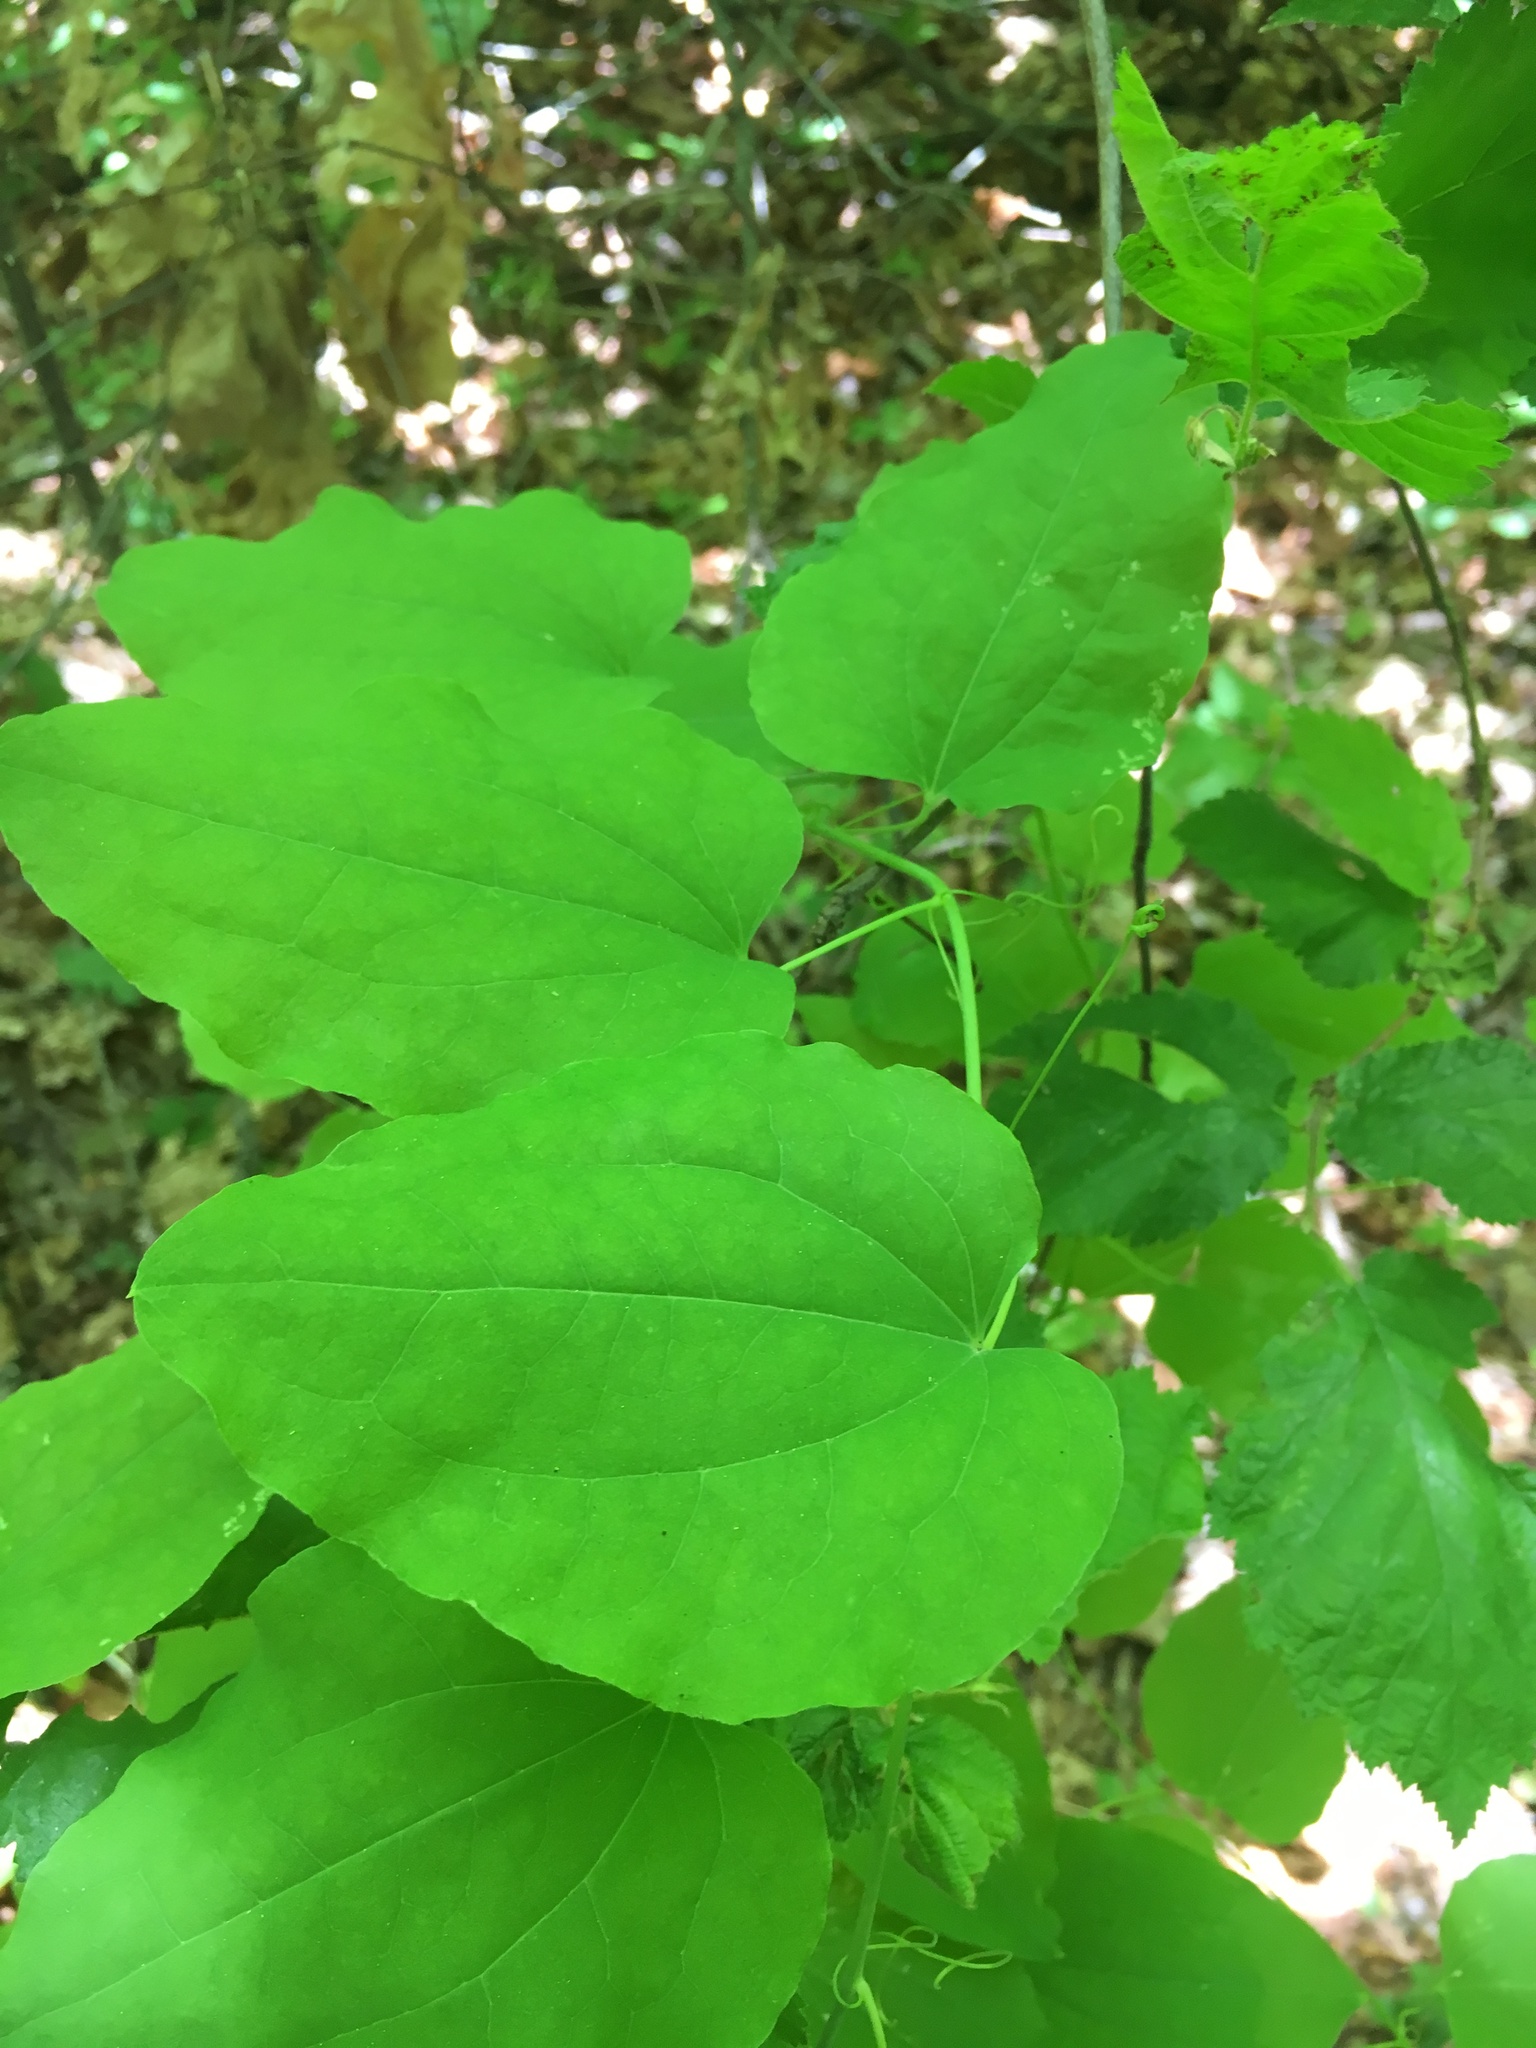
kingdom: Plantae
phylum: Tracheophyta
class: Liliopsida
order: Liliales
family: Smilacaceae
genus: Smilax
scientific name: Smilax jamesii
